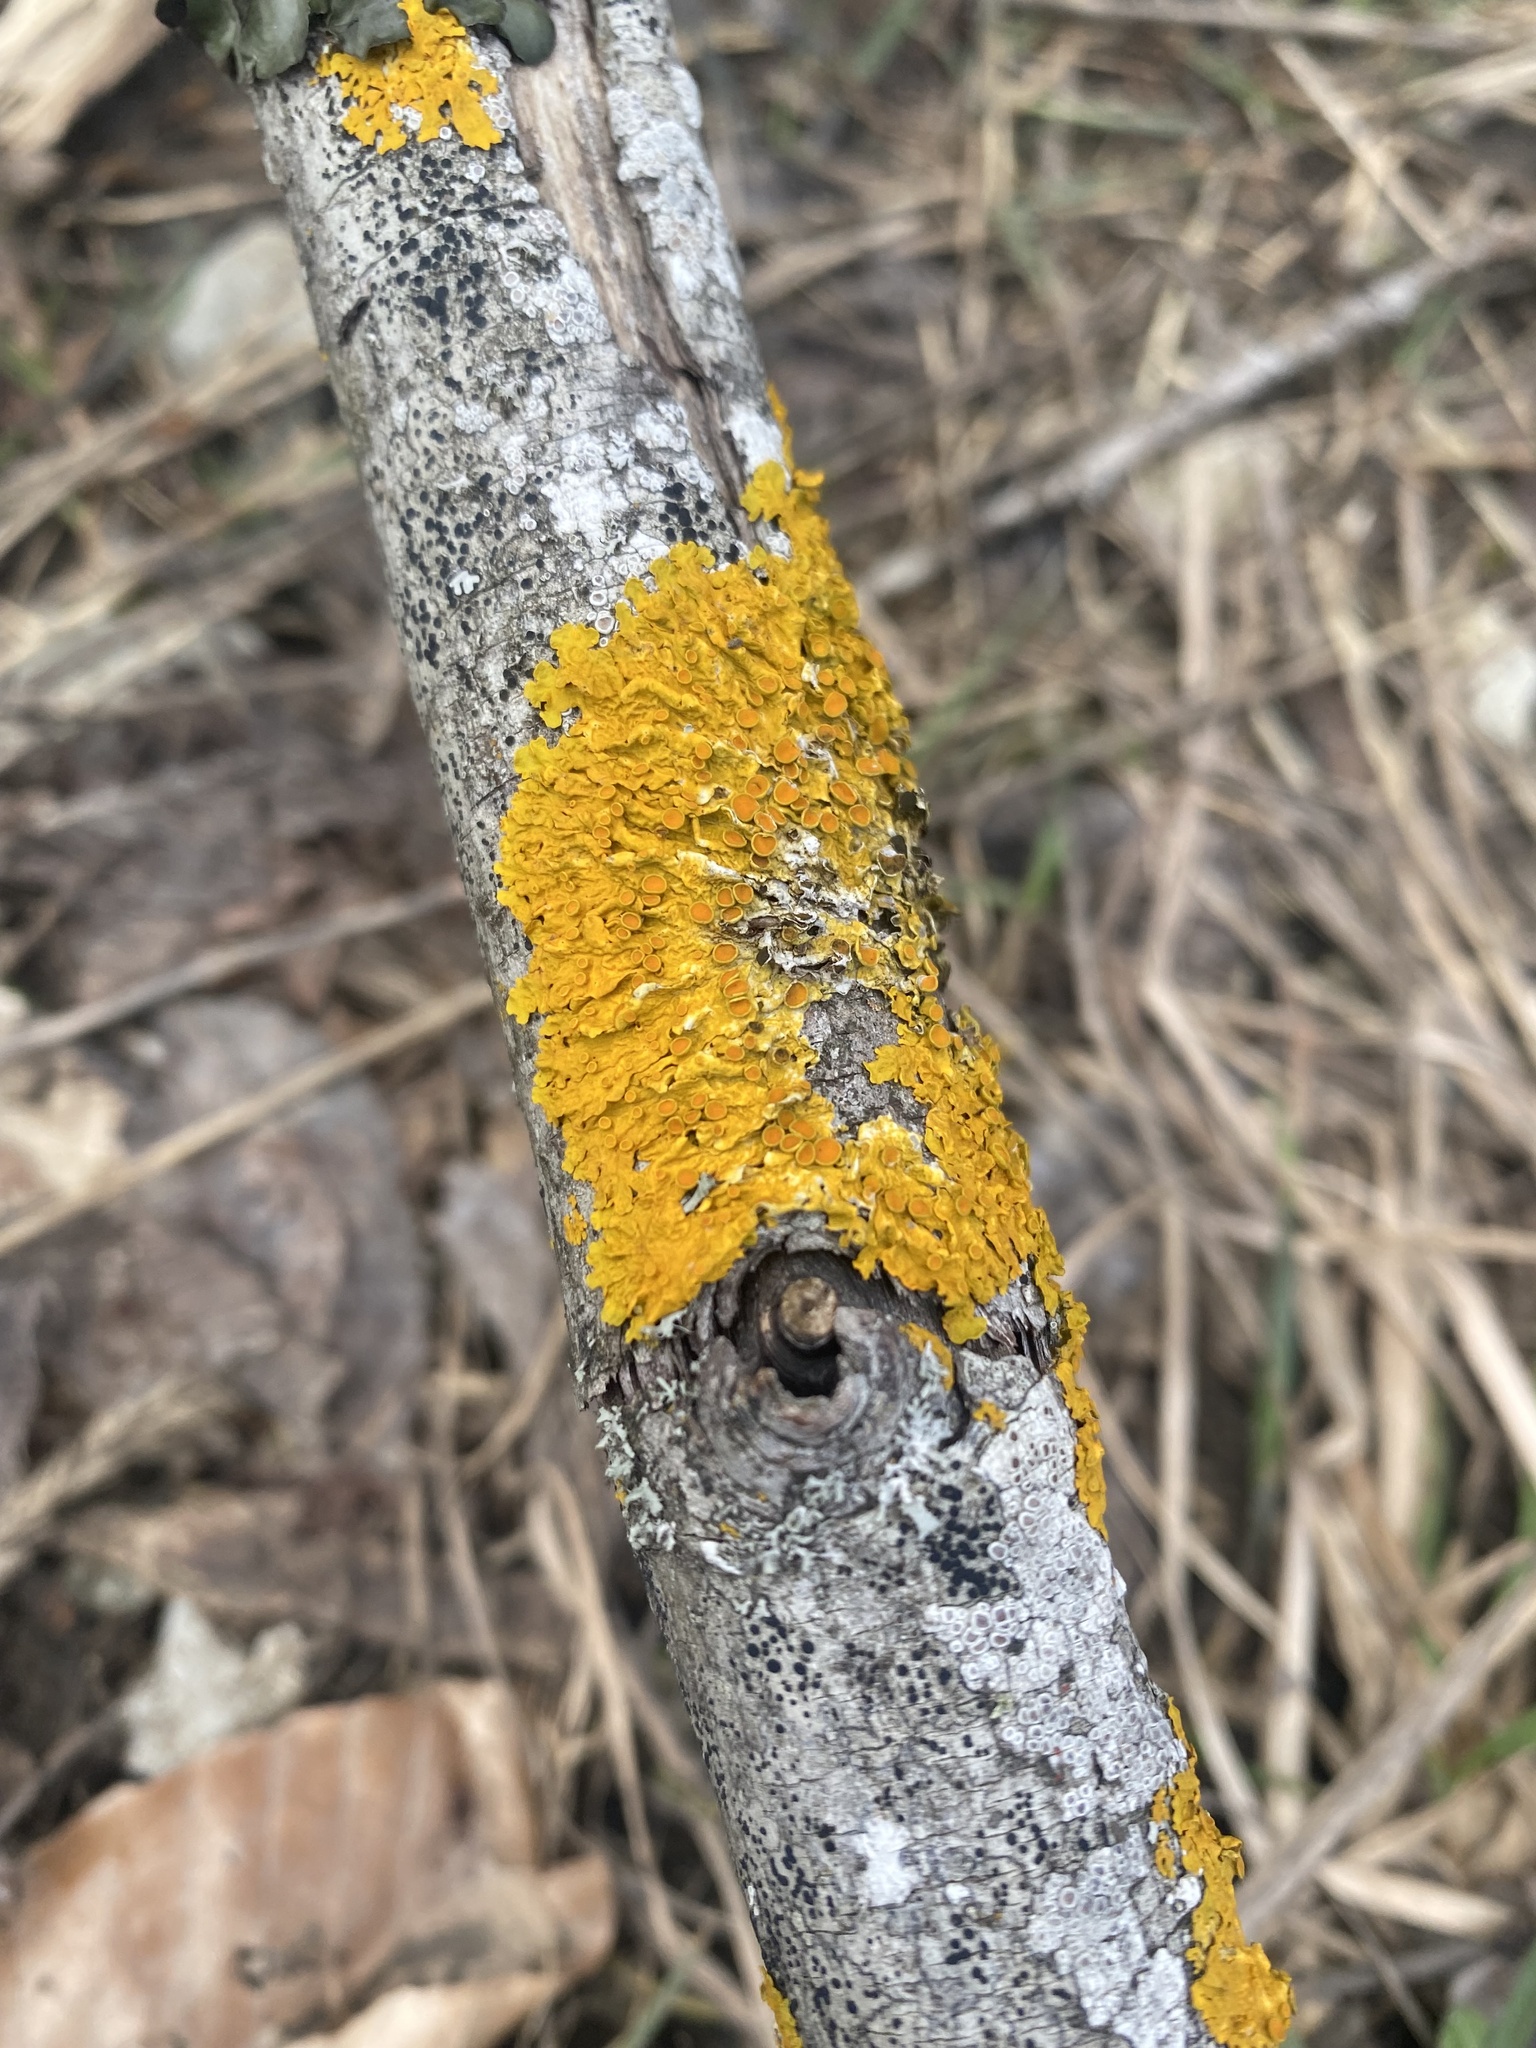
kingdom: Fungi
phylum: Ascomycota
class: Lecanoromycetes
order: Teloschistales
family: Teloschistaceae
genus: Xanthoria
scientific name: Xanthoria parietina
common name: Common orange lichen
